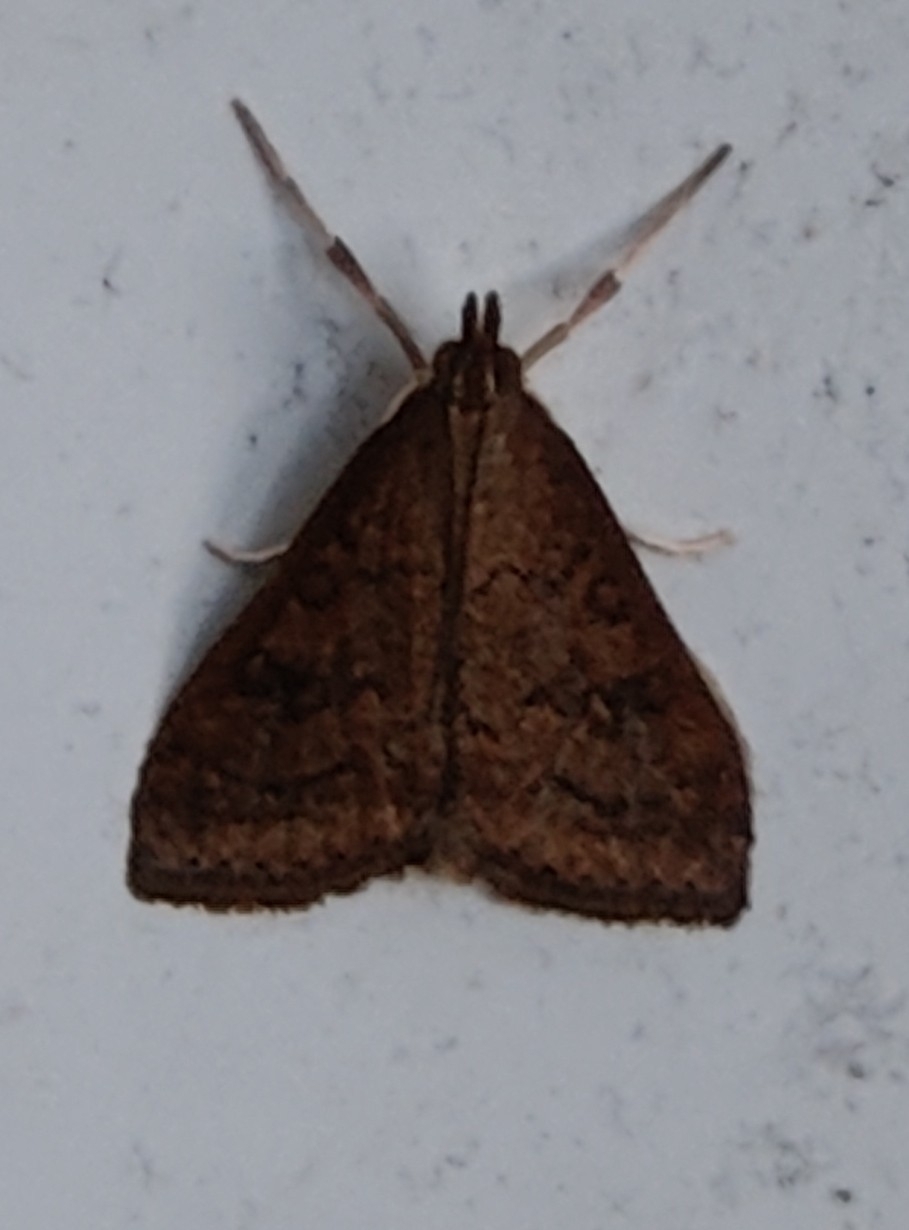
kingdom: Animalia
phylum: Arthropoda
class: Insecta
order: Lepidoptera
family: Crambidae
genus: Udea
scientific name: Udea rubigalis
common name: Celery leaftier moth
